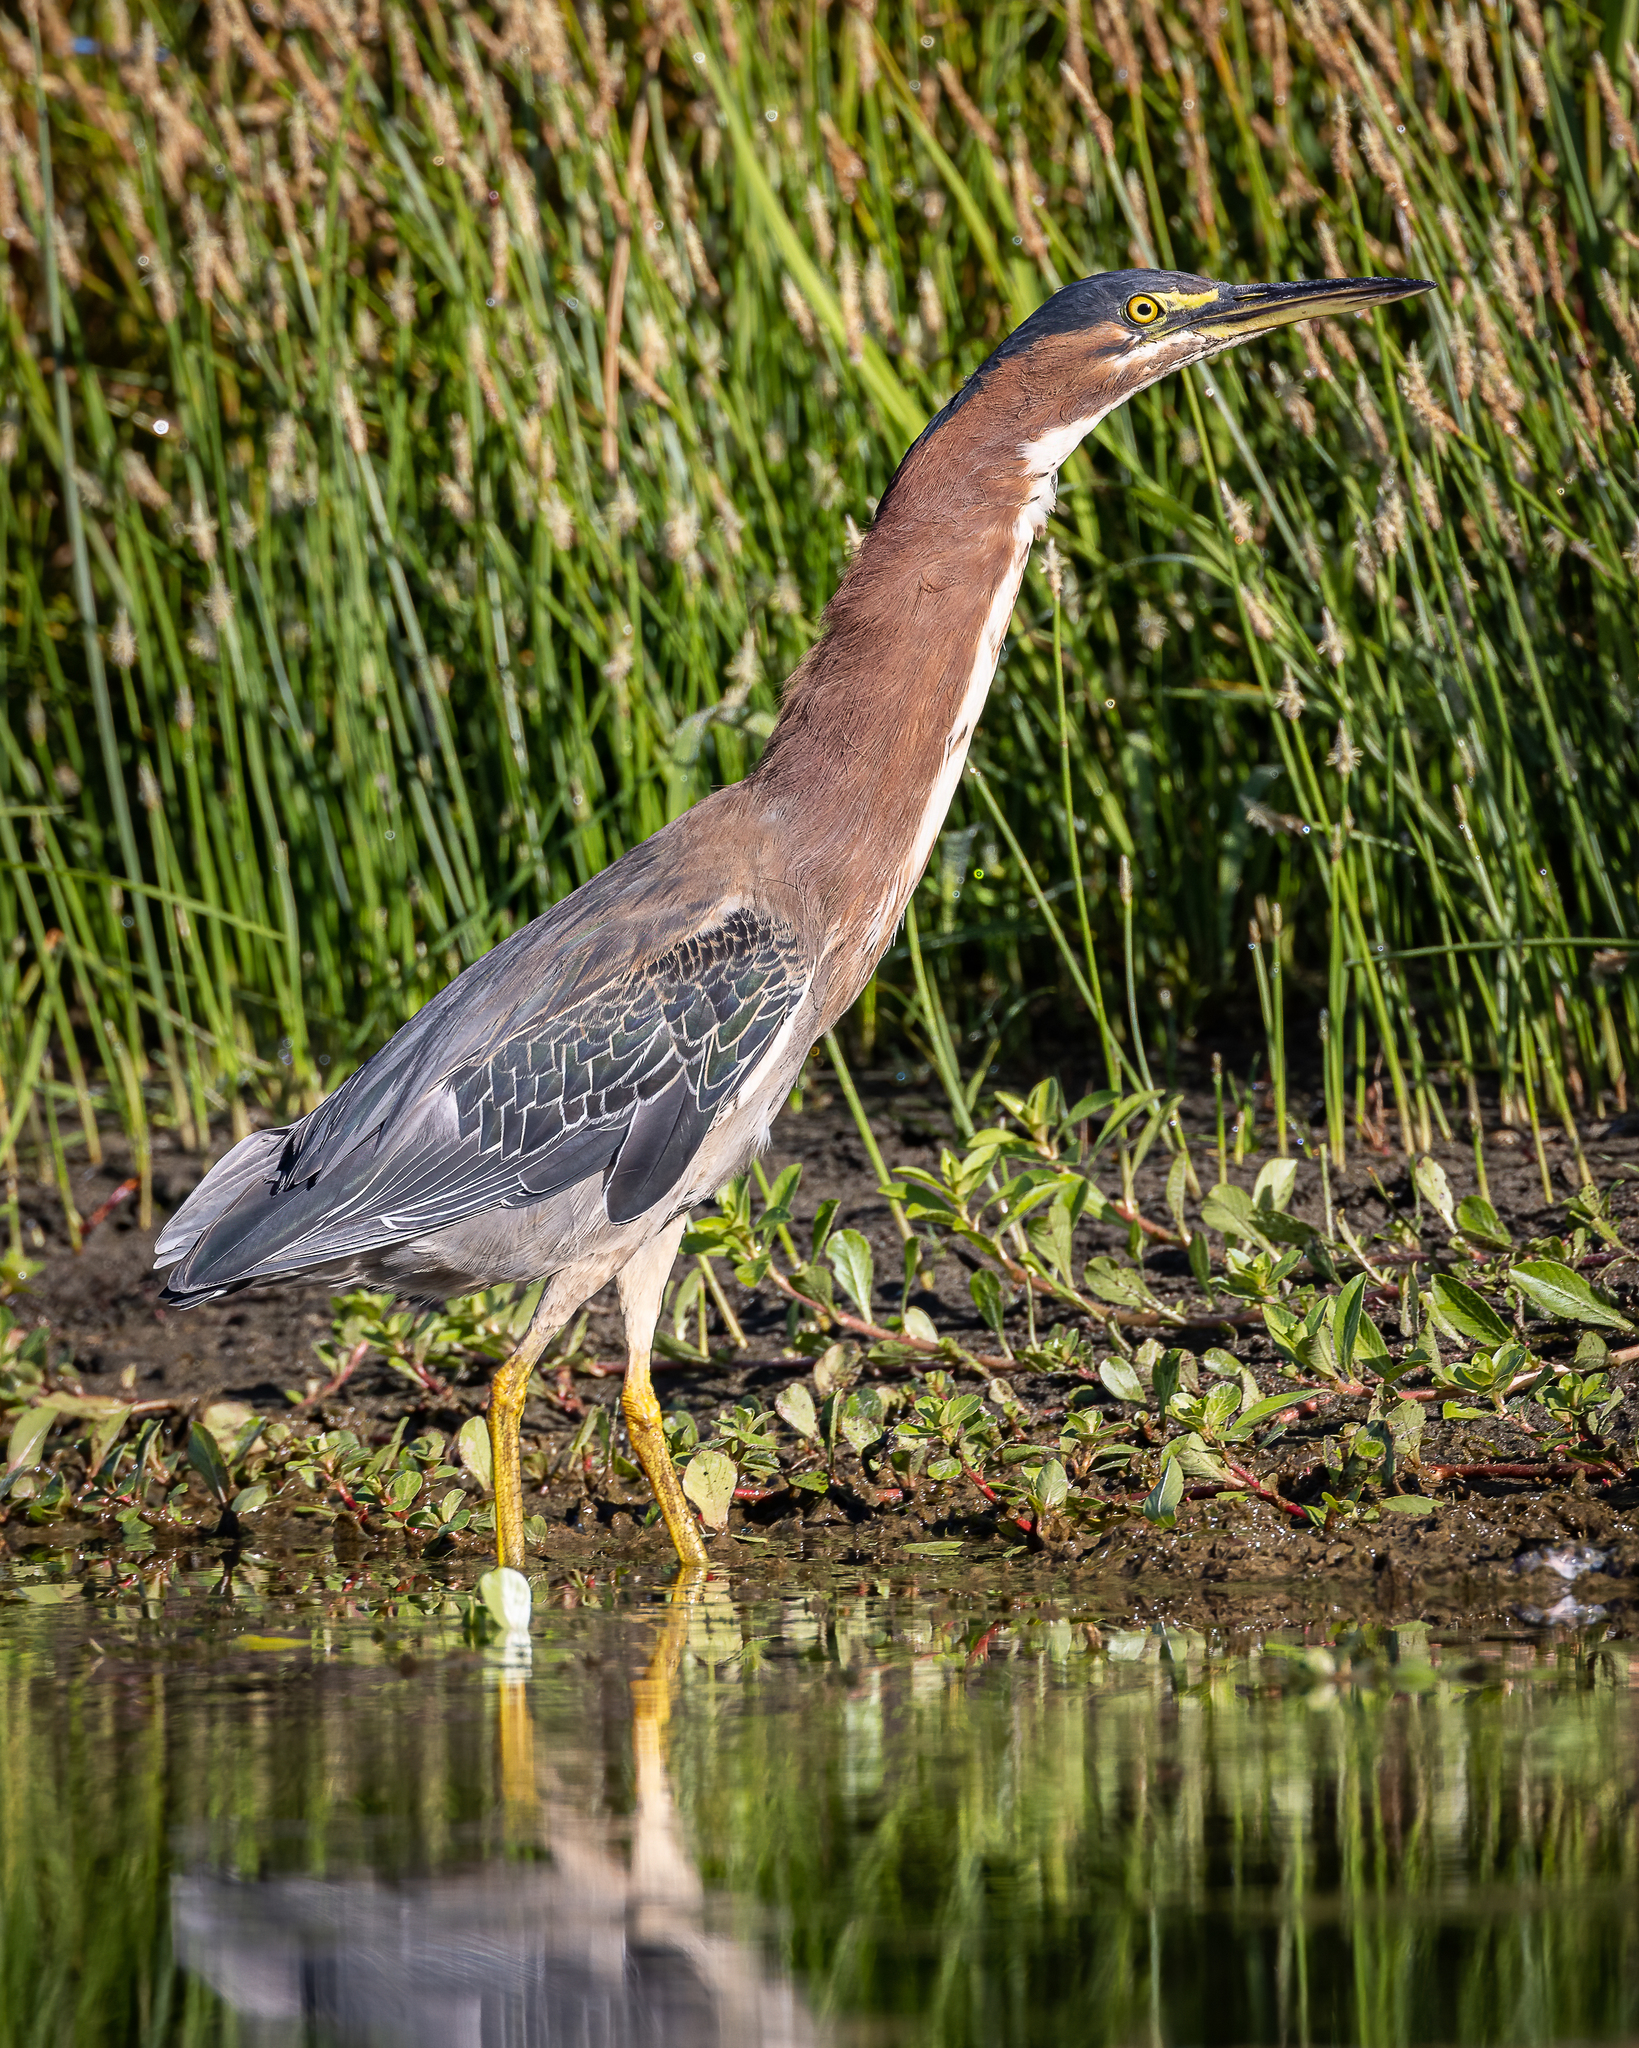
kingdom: Animalia
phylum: Chordata
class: Aves
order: Pelecaniformes
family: Ardeidae
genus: Butorides
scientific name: Butorides virescens
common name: Green heron
